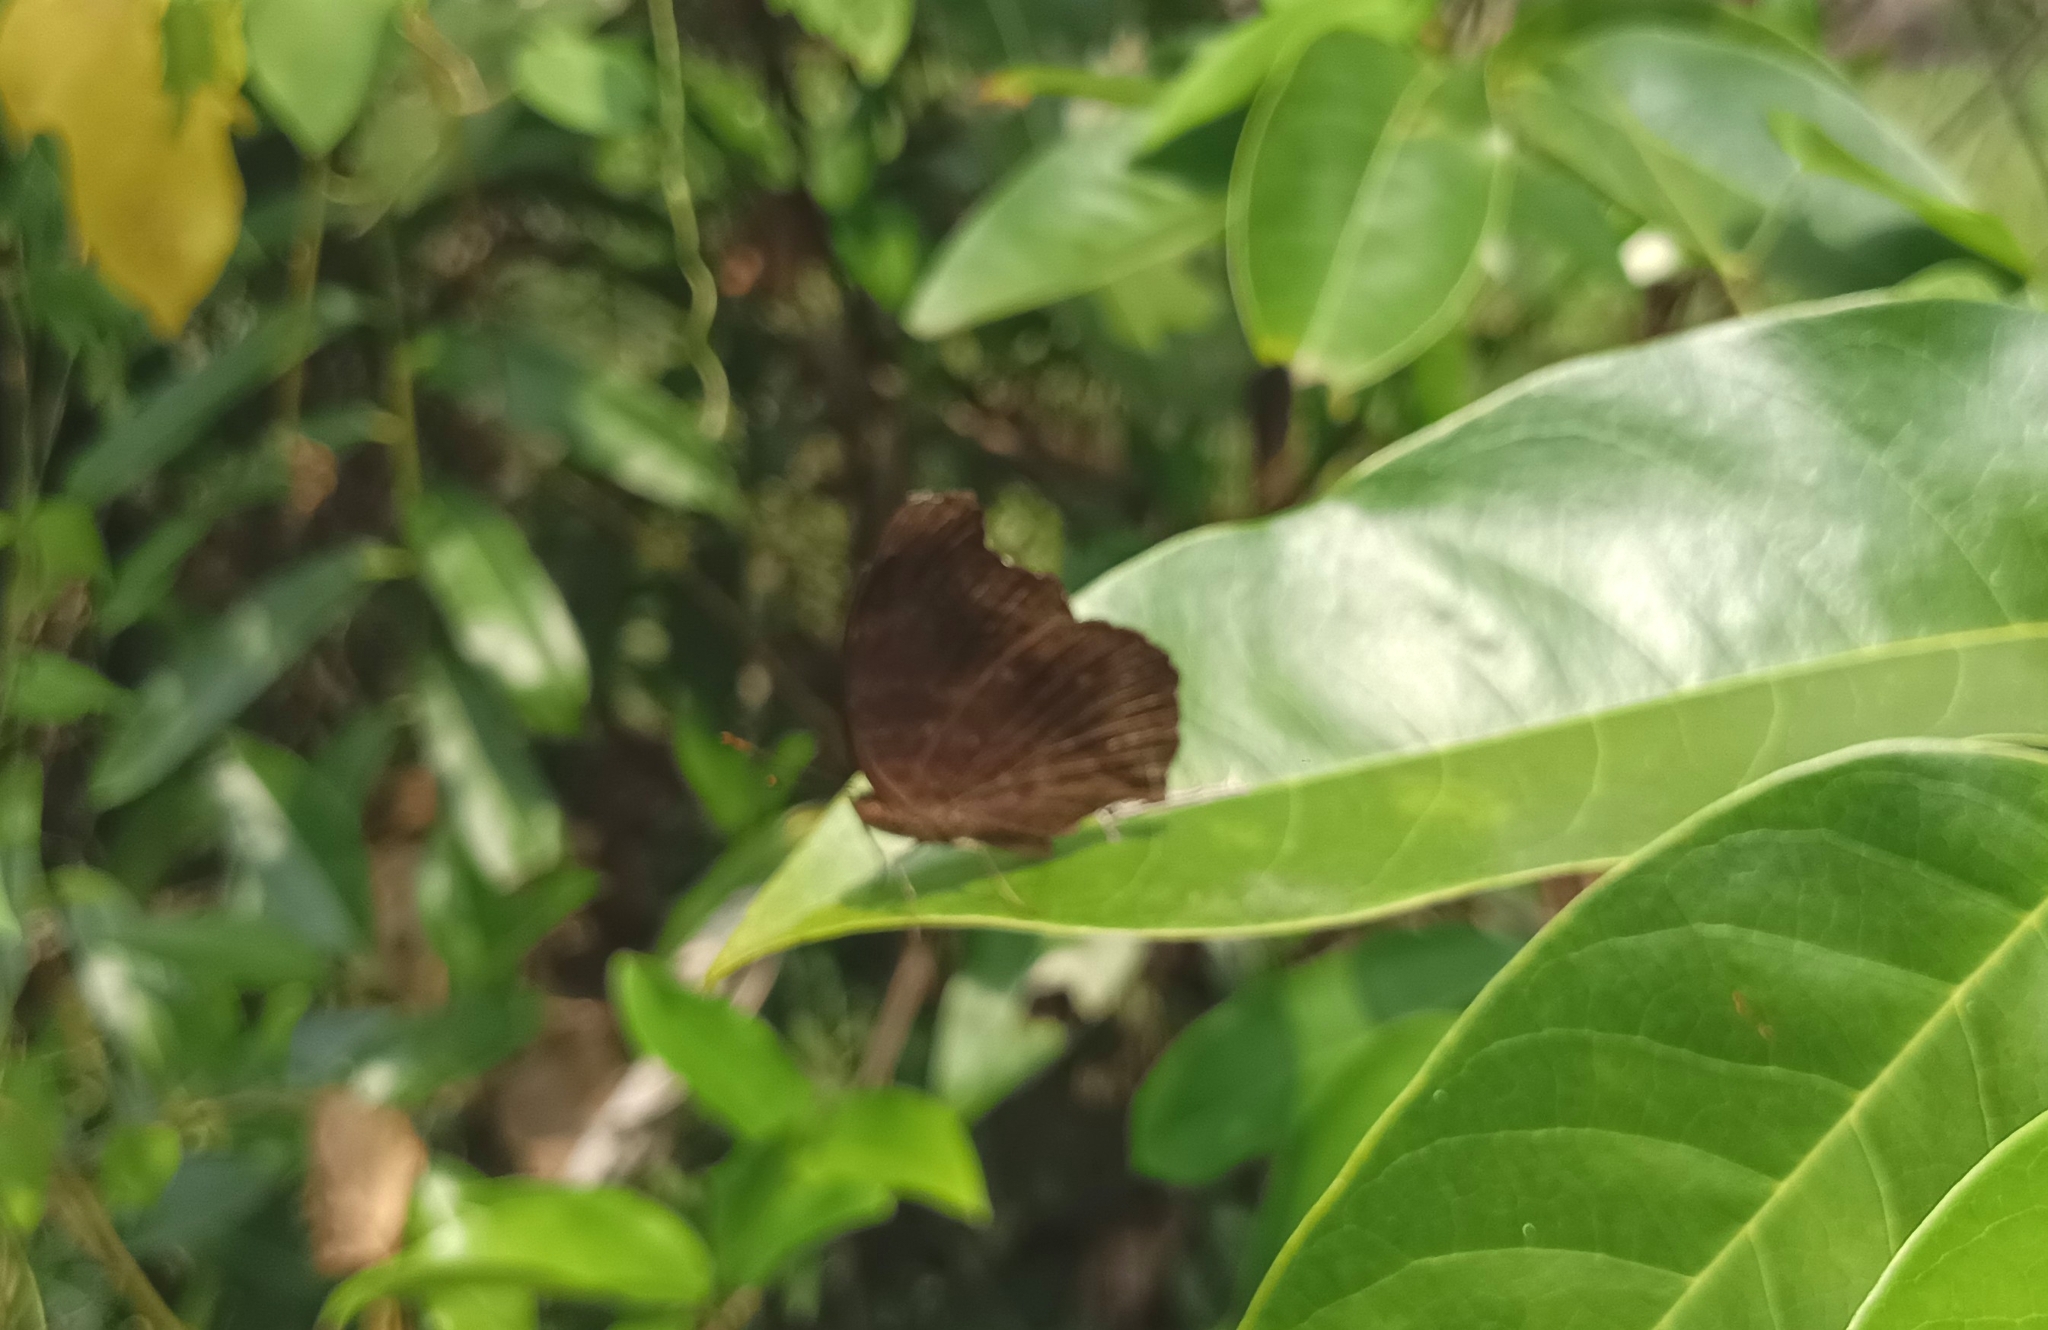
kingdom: Animalia
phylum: Arthropoda
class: Insecta
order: Lepidoptera
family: Nymphalidae
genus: Junonia
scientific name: Junonia iphita
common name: Chocolate pansy
